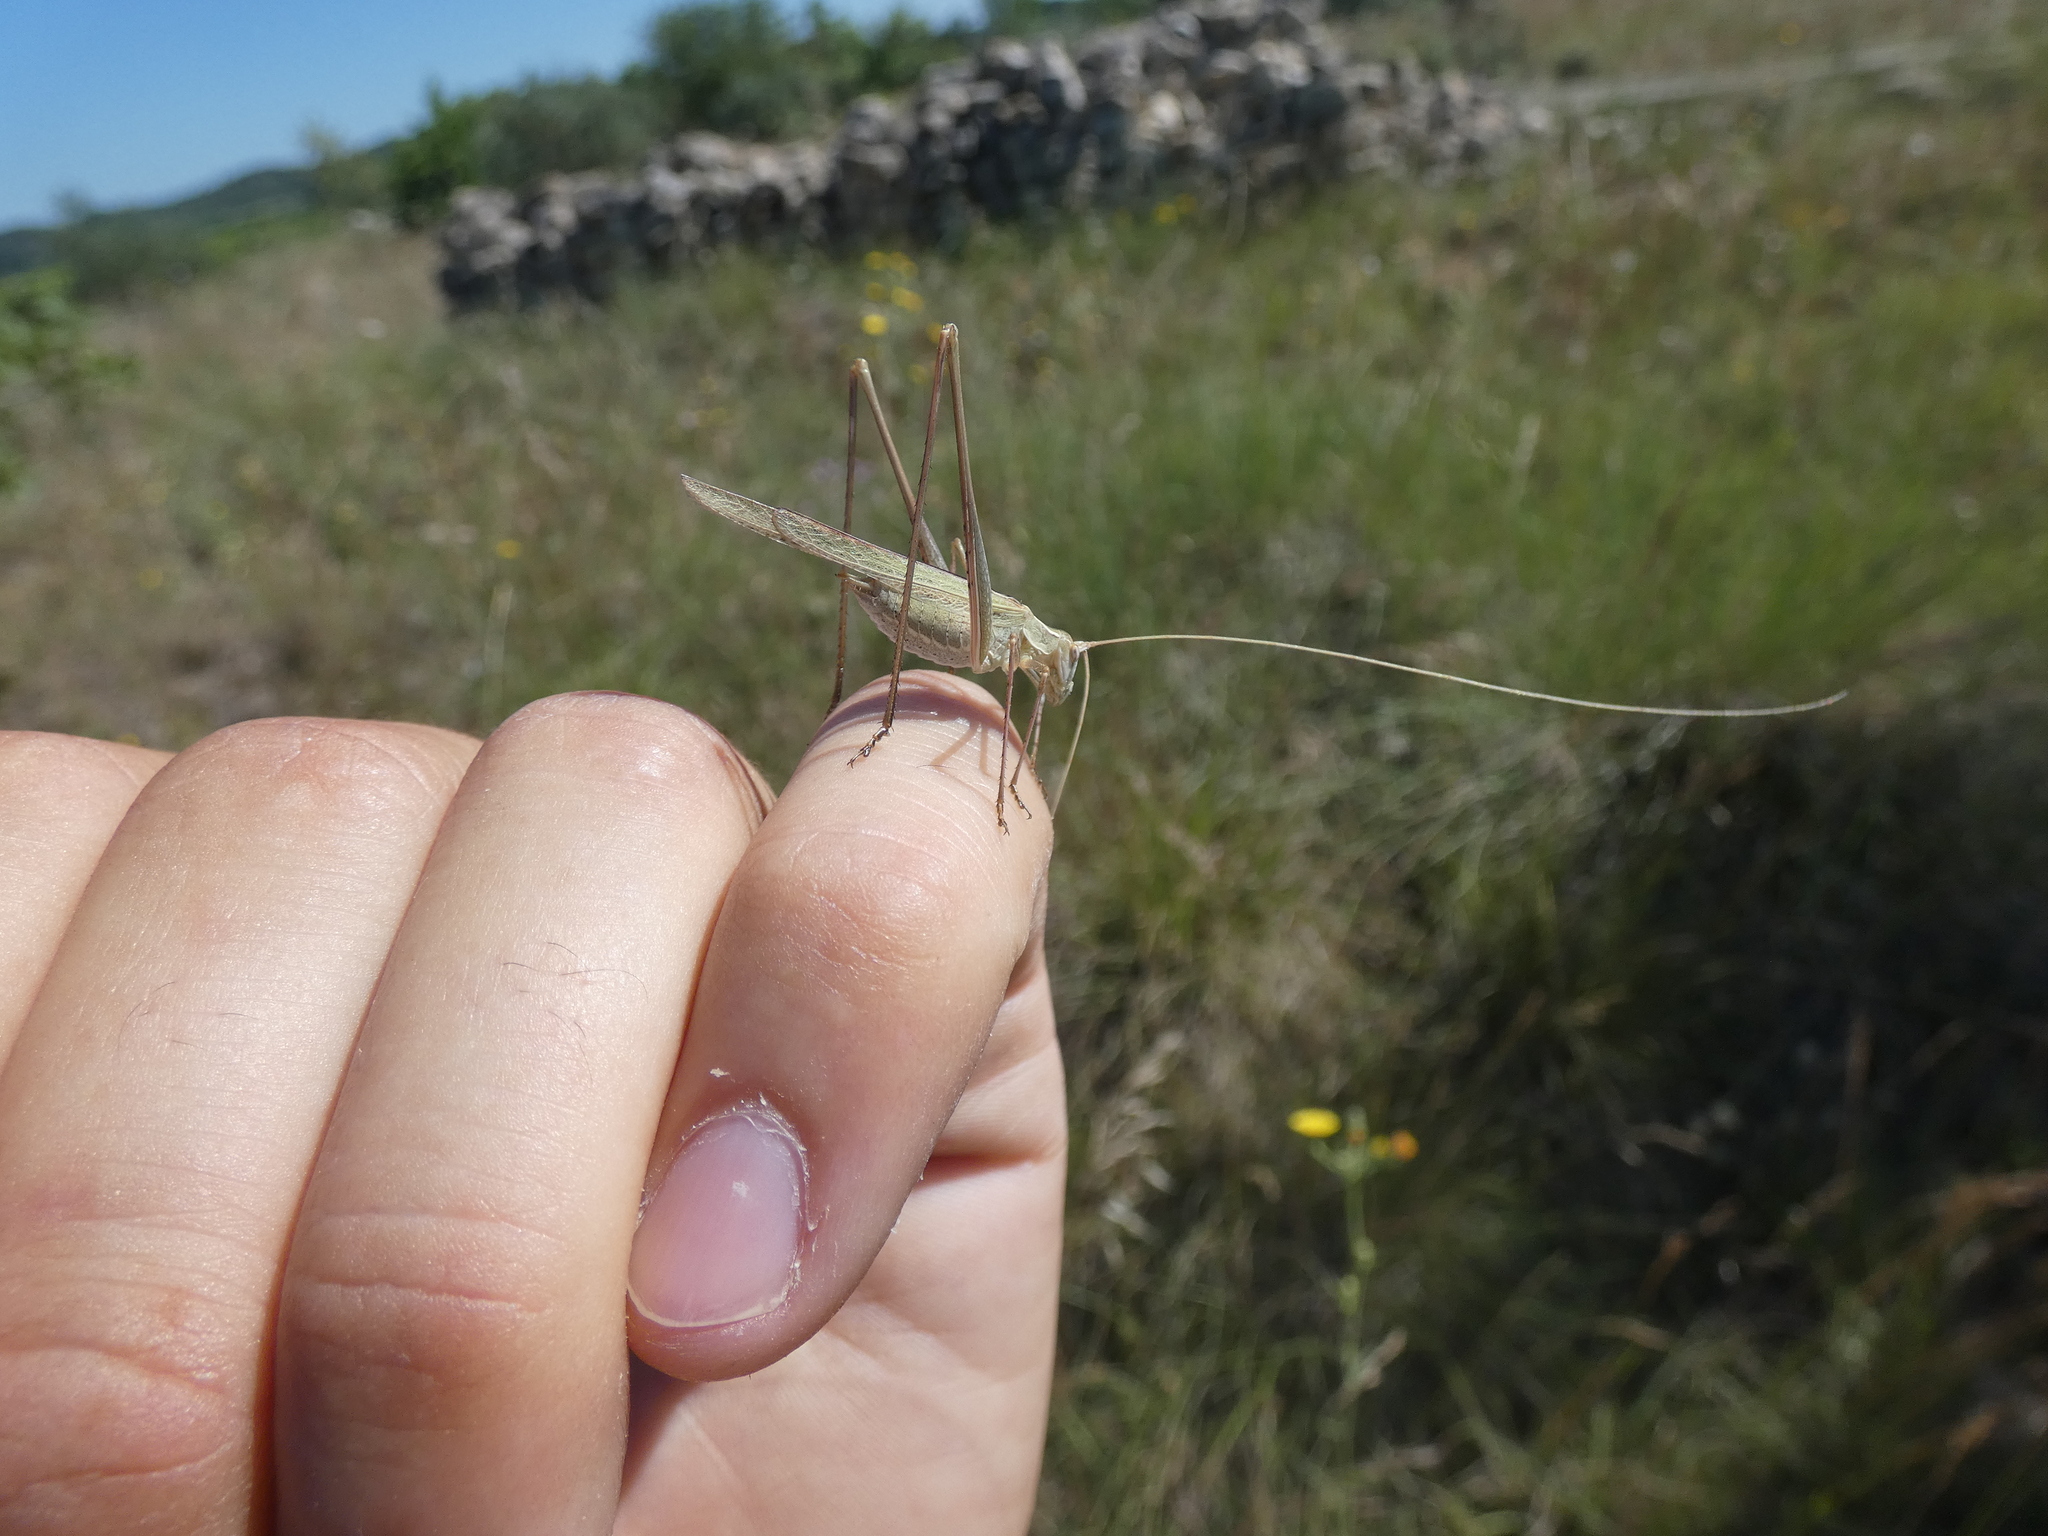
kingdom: Animalia
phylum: Arthropoda
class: Insecta
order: Orthoptera
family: Tettigoniidae
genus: Tylopsis
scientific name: Tylopsis lilifolia
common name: Lily bush-cricket
